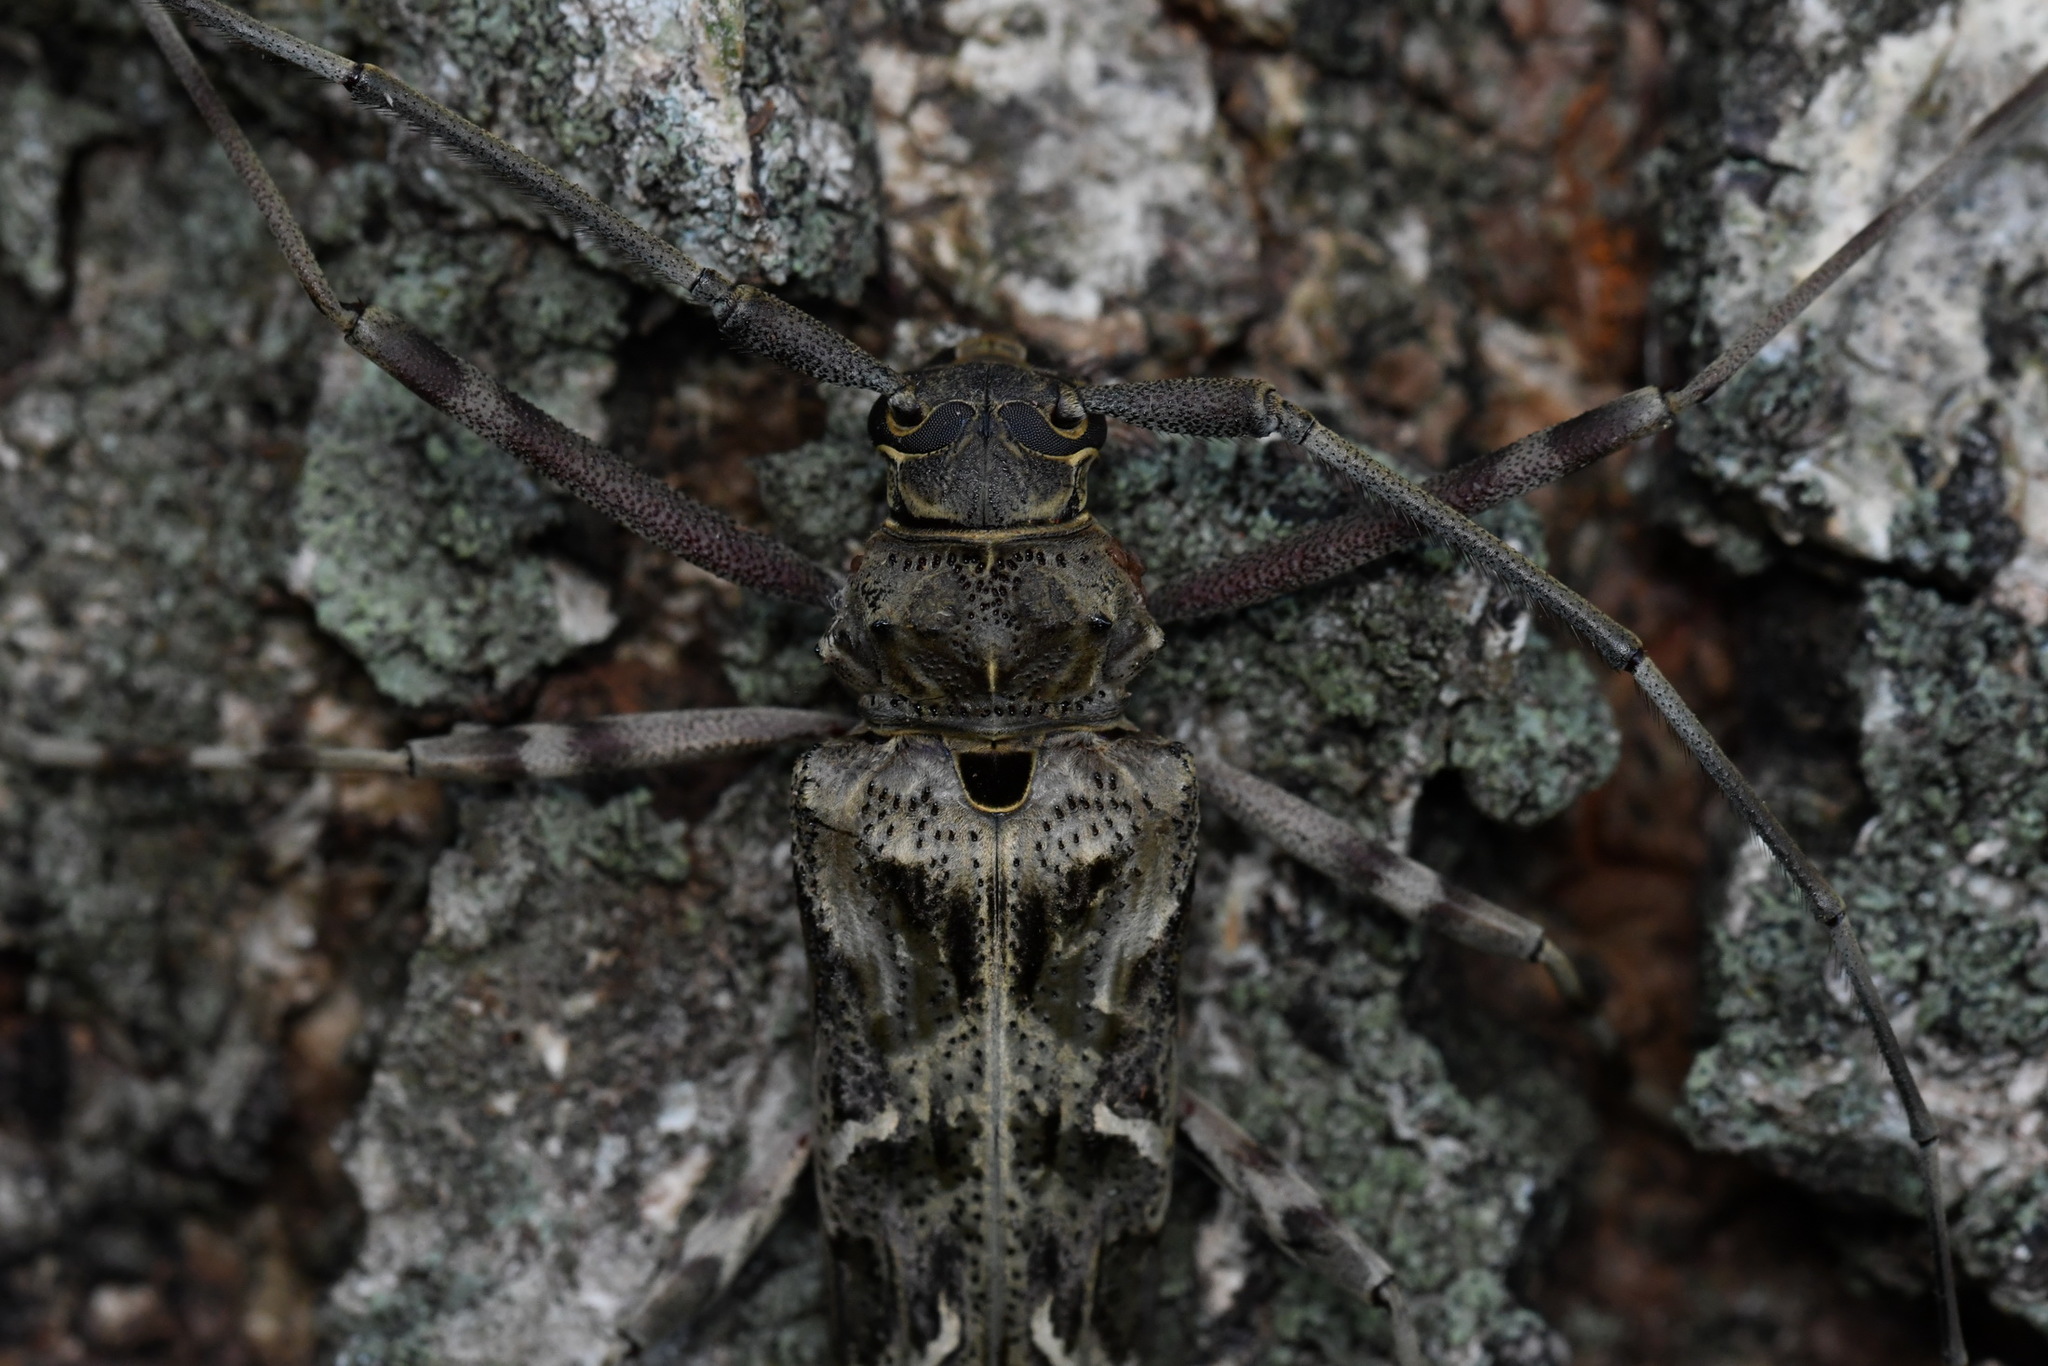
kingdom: Animalia
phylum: Arthropoda
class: Insecta
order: Coleoptera
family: Cerambycidae
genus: Macropophora
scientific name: Macropophora accentifer
